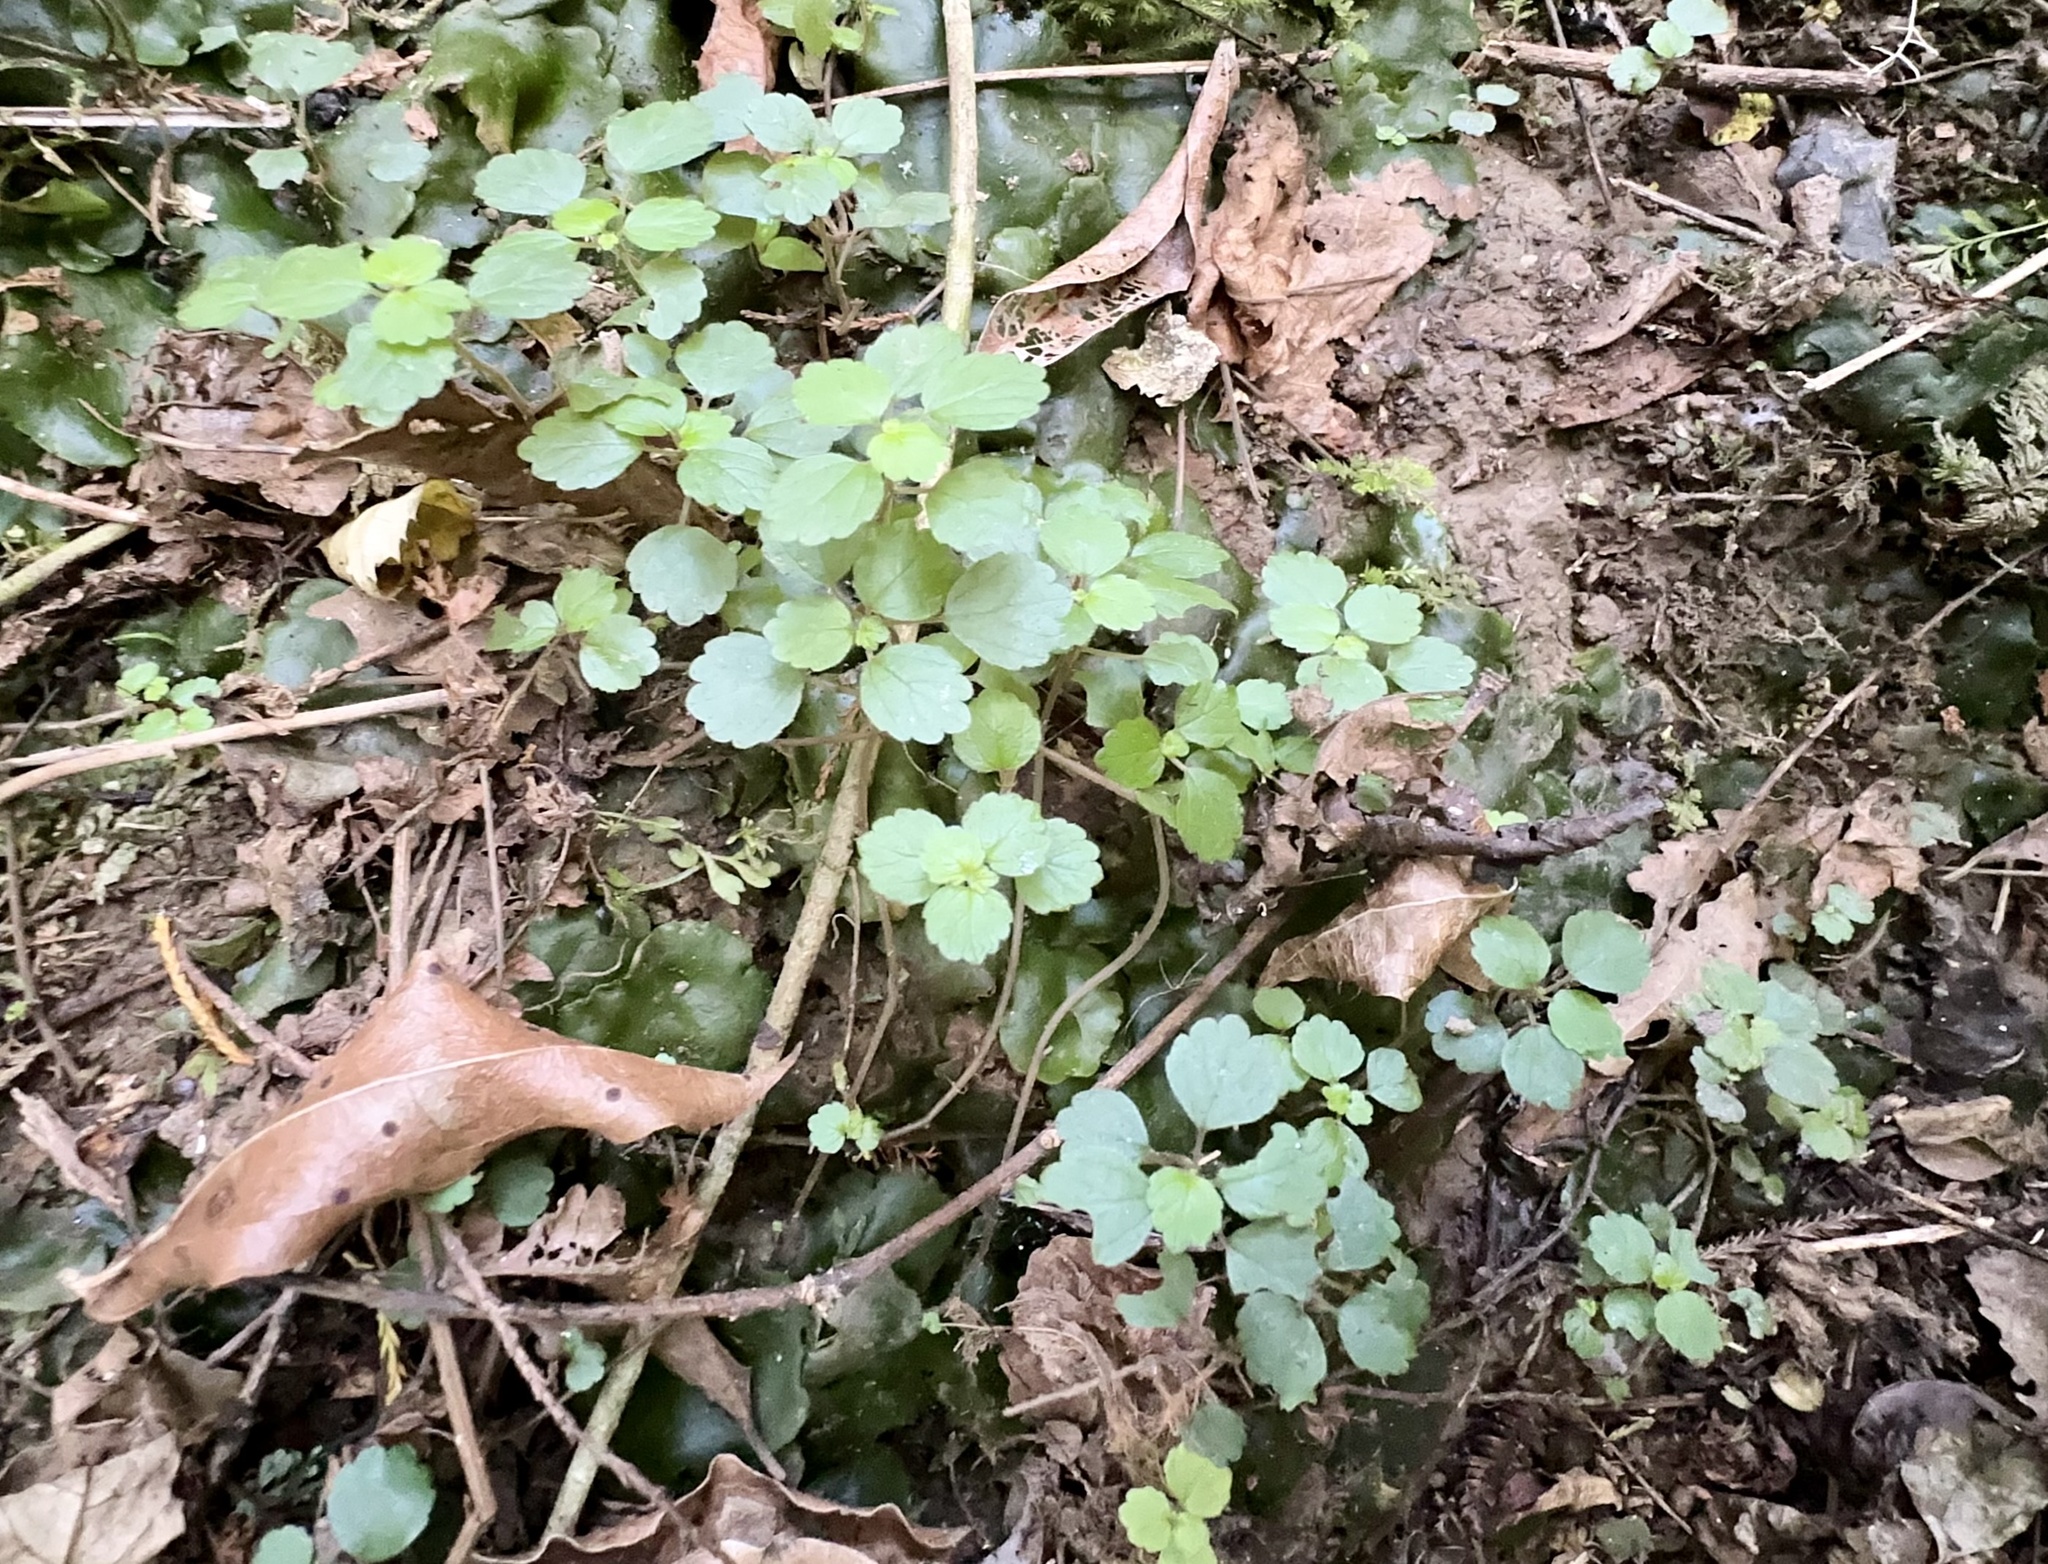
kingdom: Plantae
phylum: Tracheophyta
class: Magnoliopsida
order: Rosales
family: Urticaceae
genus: Australina
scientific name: Australina pusilla
